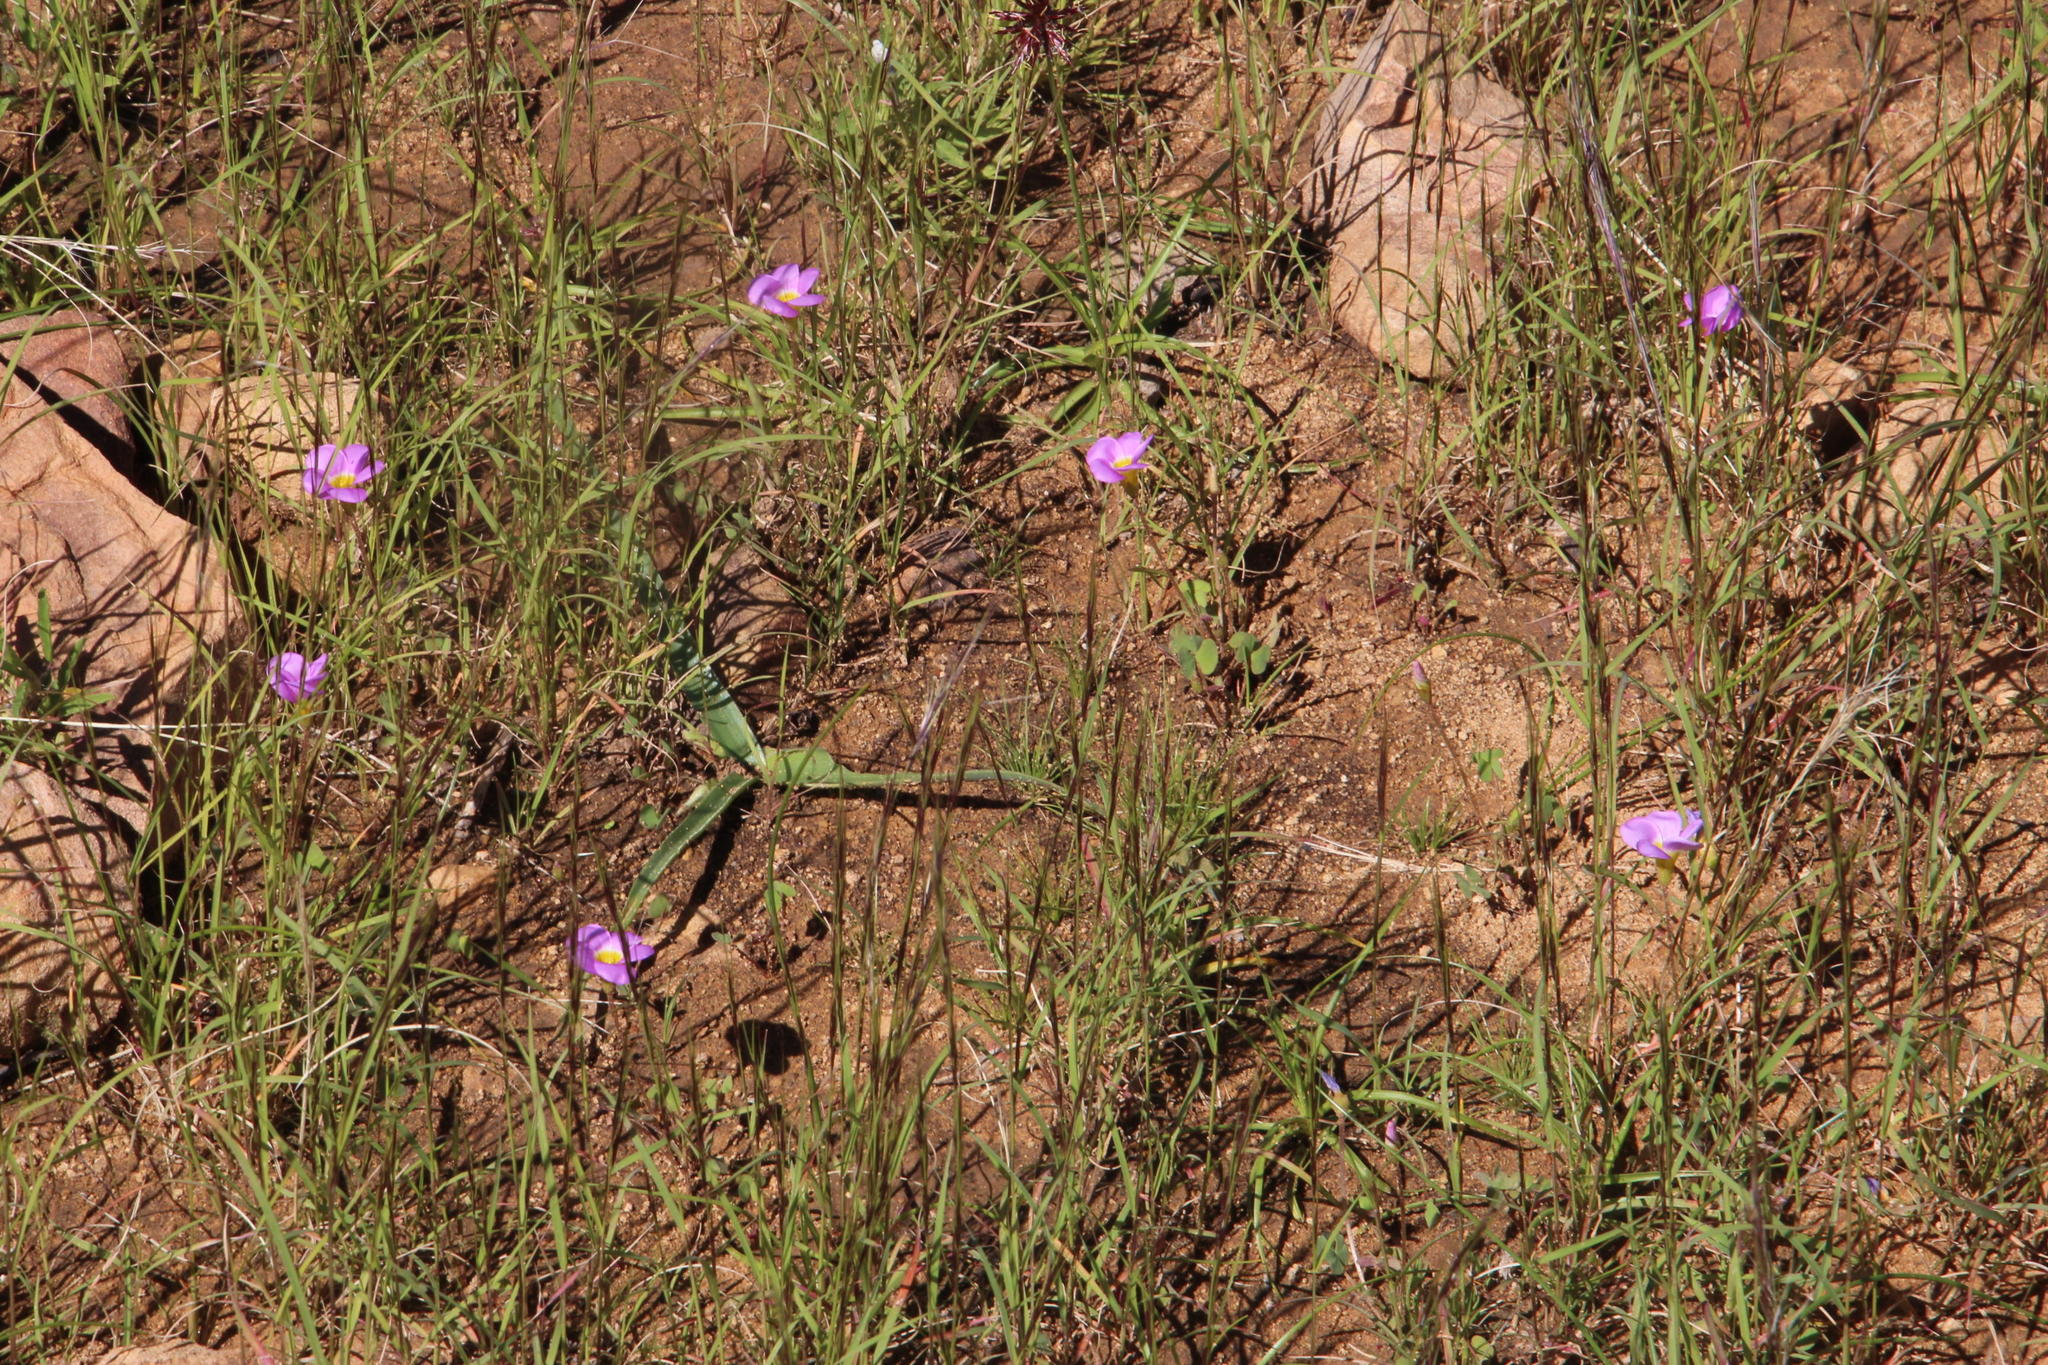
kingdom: Plantae
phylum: Tracheophyta
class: Magnoliopsida
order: Oxalidales
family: Oxalidaceae
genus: Oxalis
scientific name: Oxalis obliquifolia
